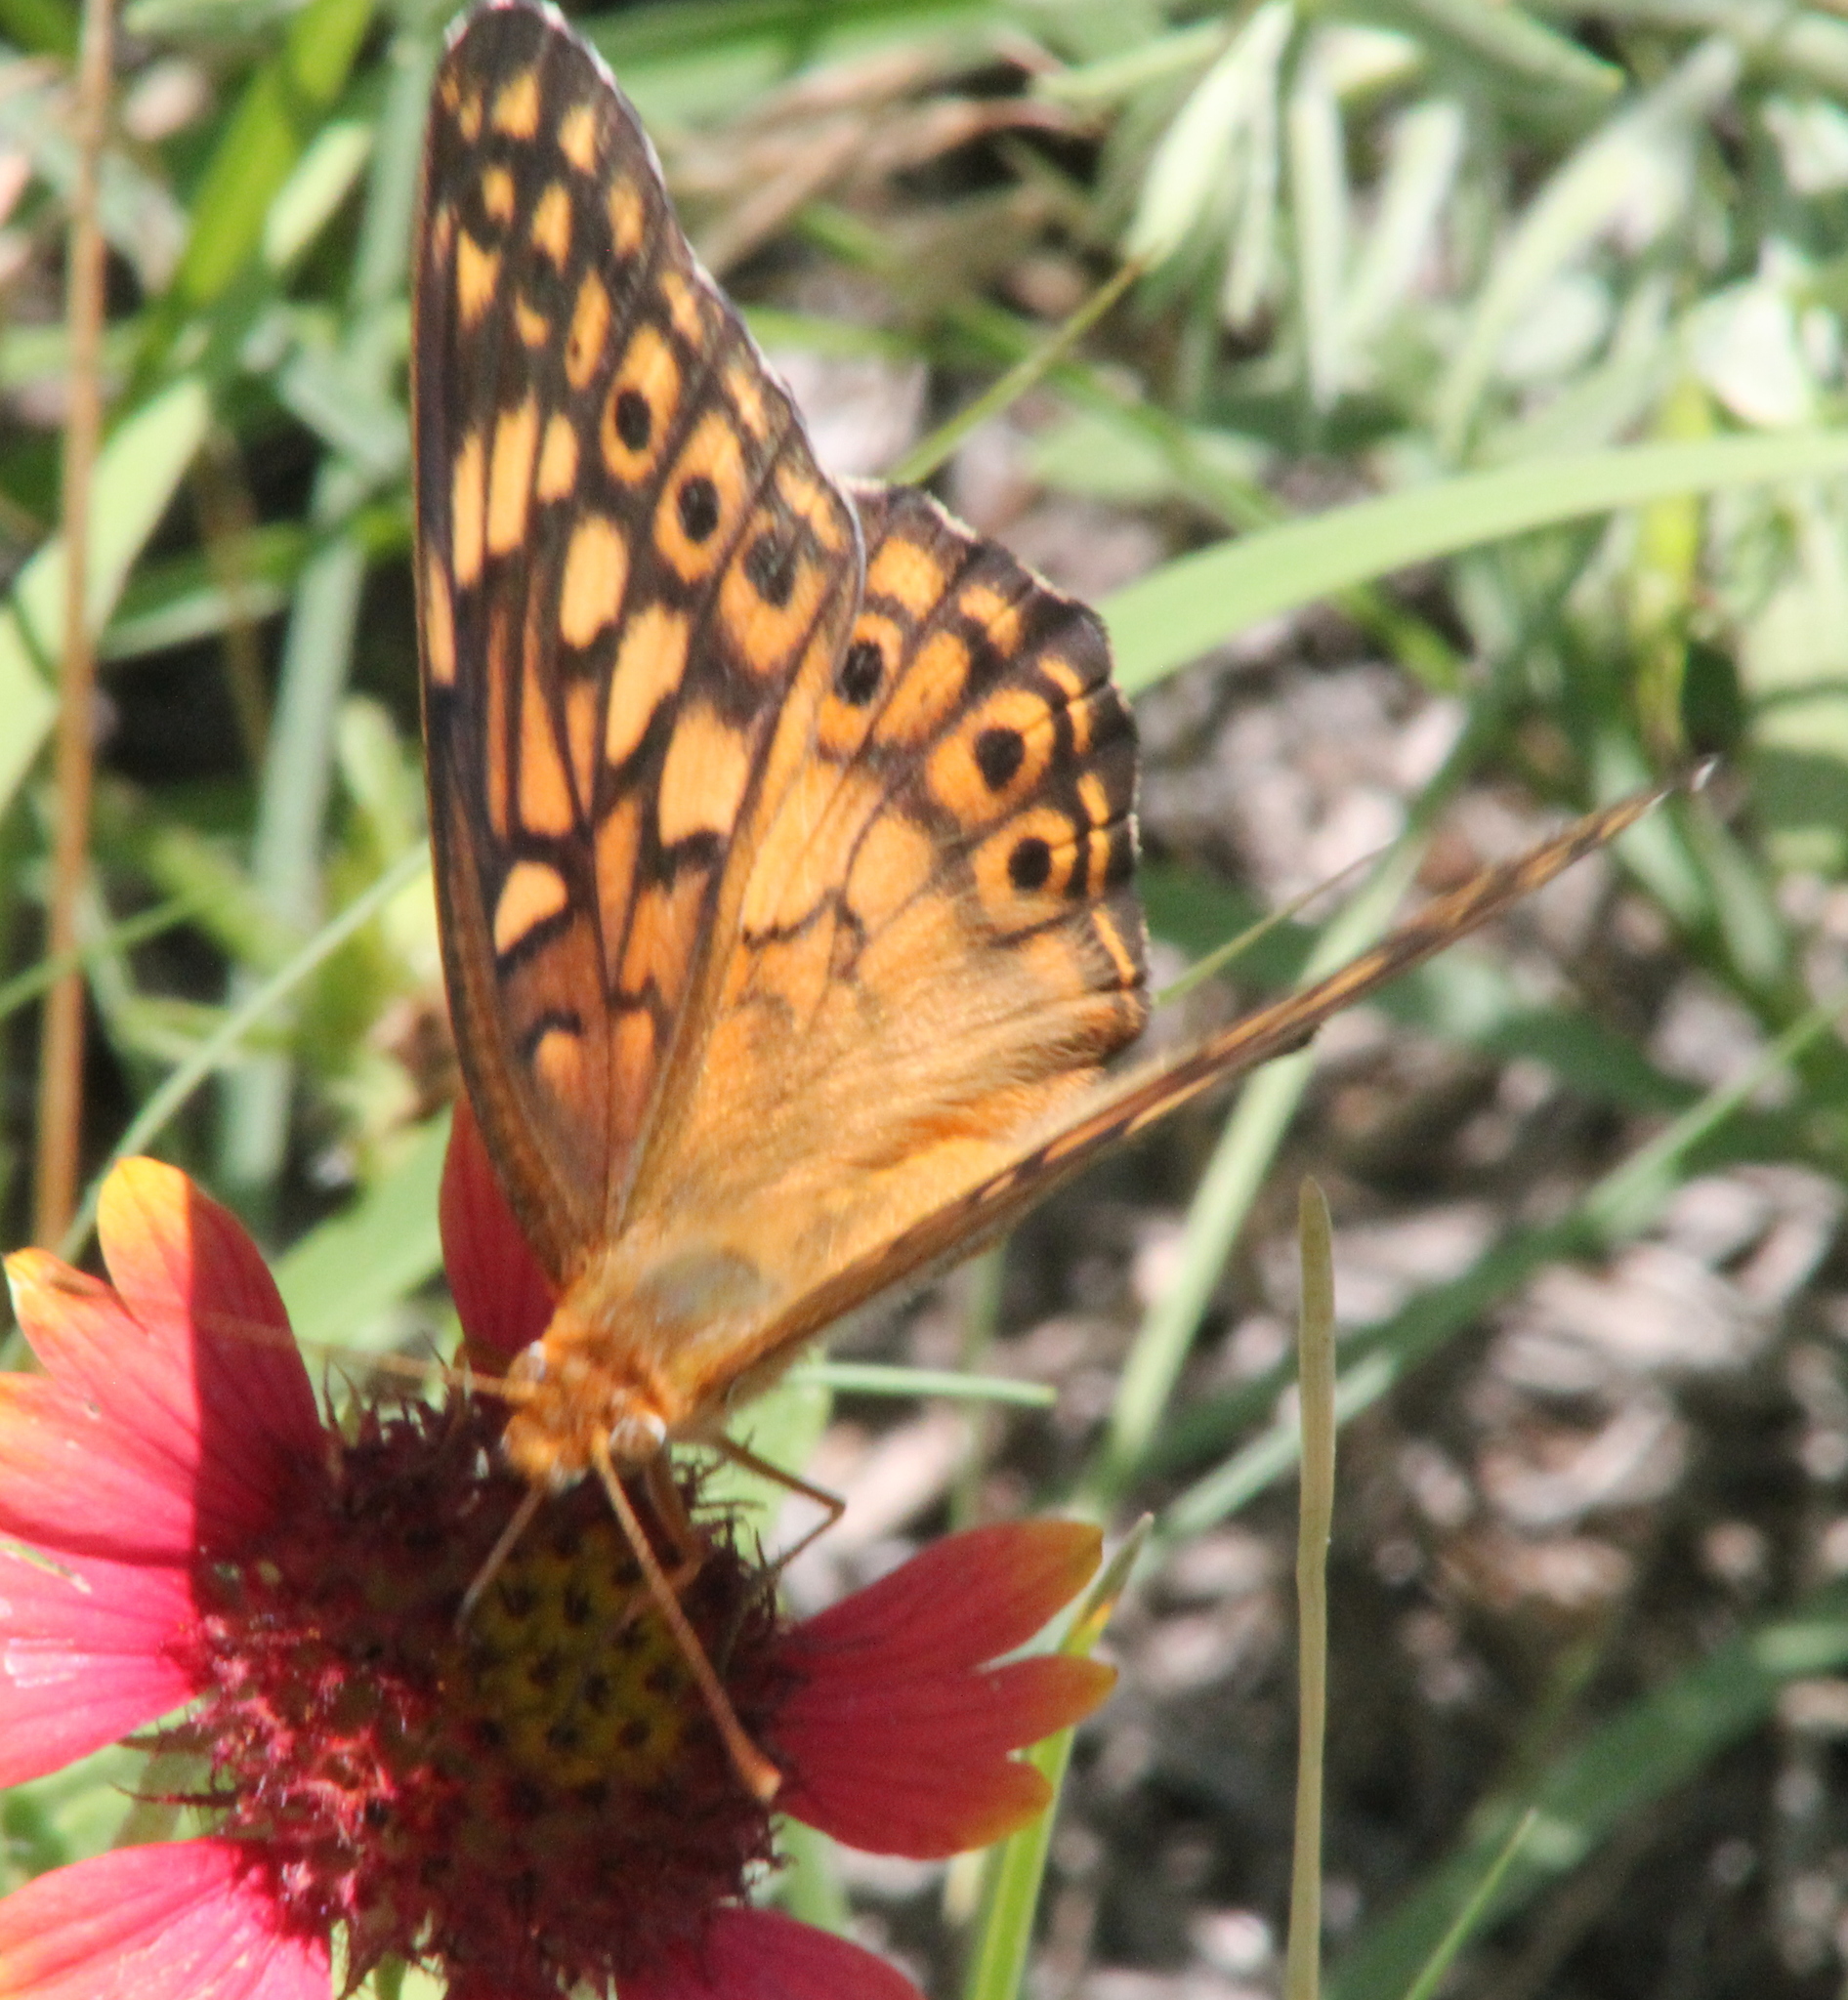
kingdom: Animalia
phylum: Arthropoda
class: Insecta
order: Lepidoptera
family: Nymphalidae
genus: Euptoieta
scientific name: Euptoieta claudia
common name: Variegated fritillary
